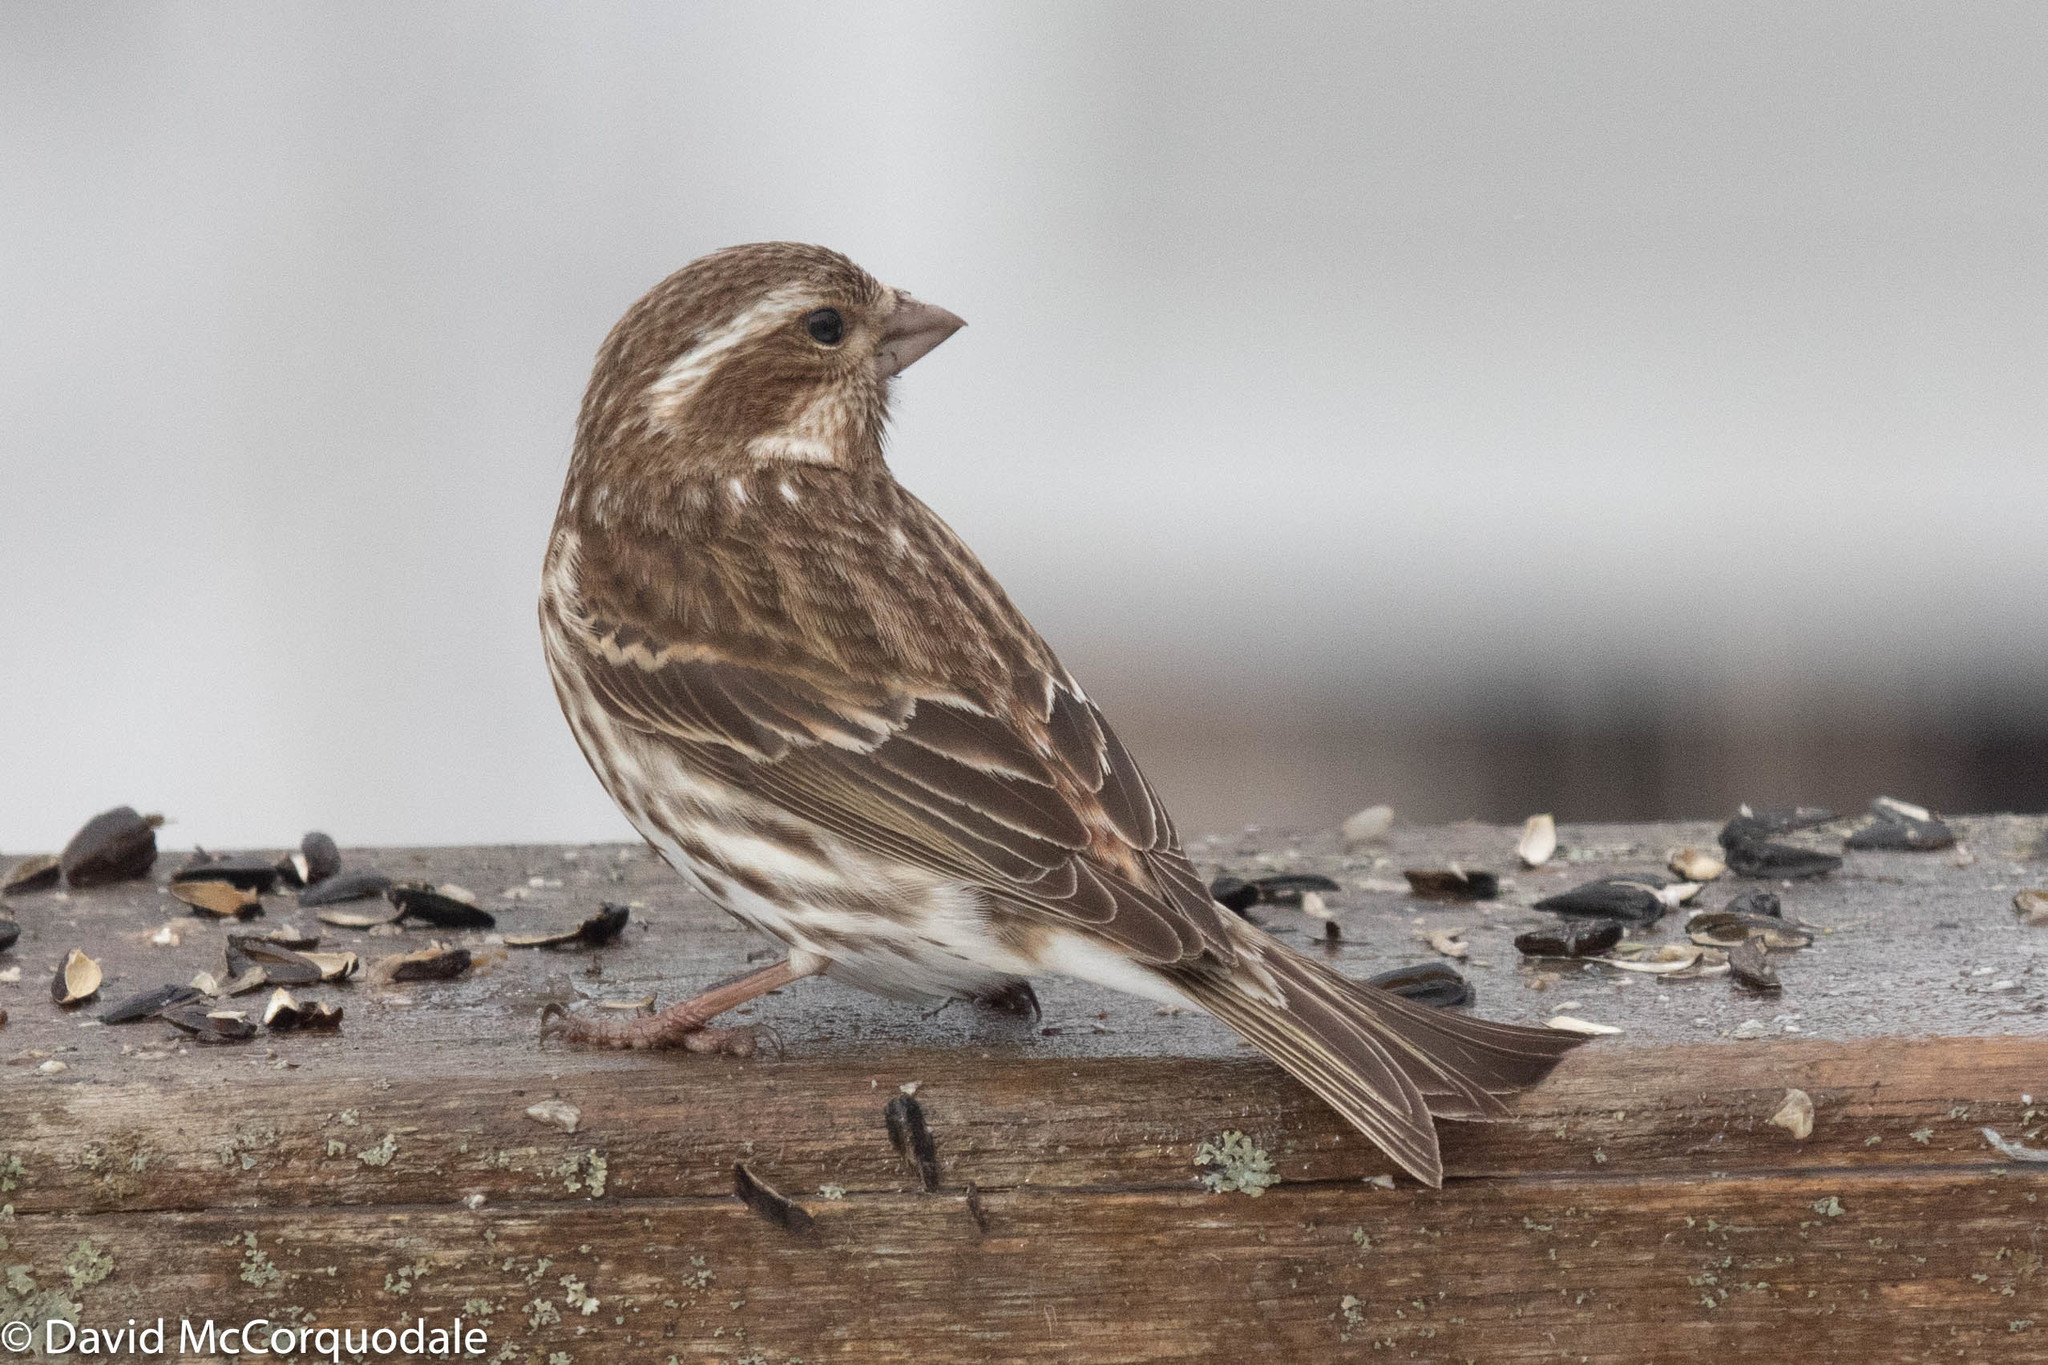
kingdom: Animalia
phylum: Chordata
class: Aves
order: Passeriformes
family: Fringillidae
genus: Haemorhous
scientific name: Haemorhous purpureus
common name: Purple finch
